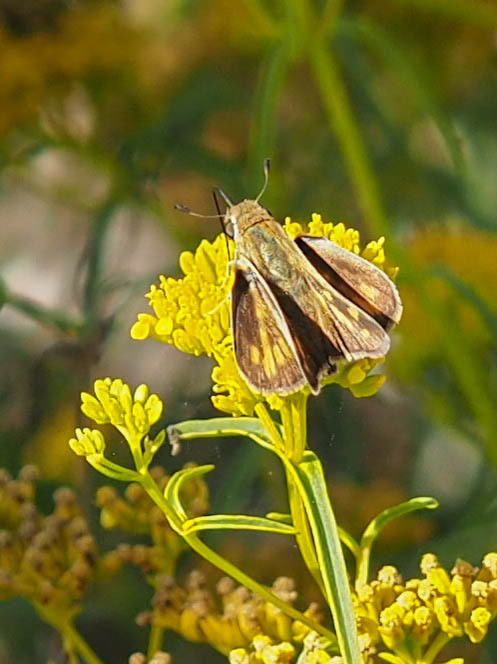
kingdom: Animalia
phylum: Arthropoda
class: Insecta
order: Lepidoptera
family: Hesperiidae
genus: Hylephila
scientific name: Hylephila phyleus
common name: Fiery skipper
